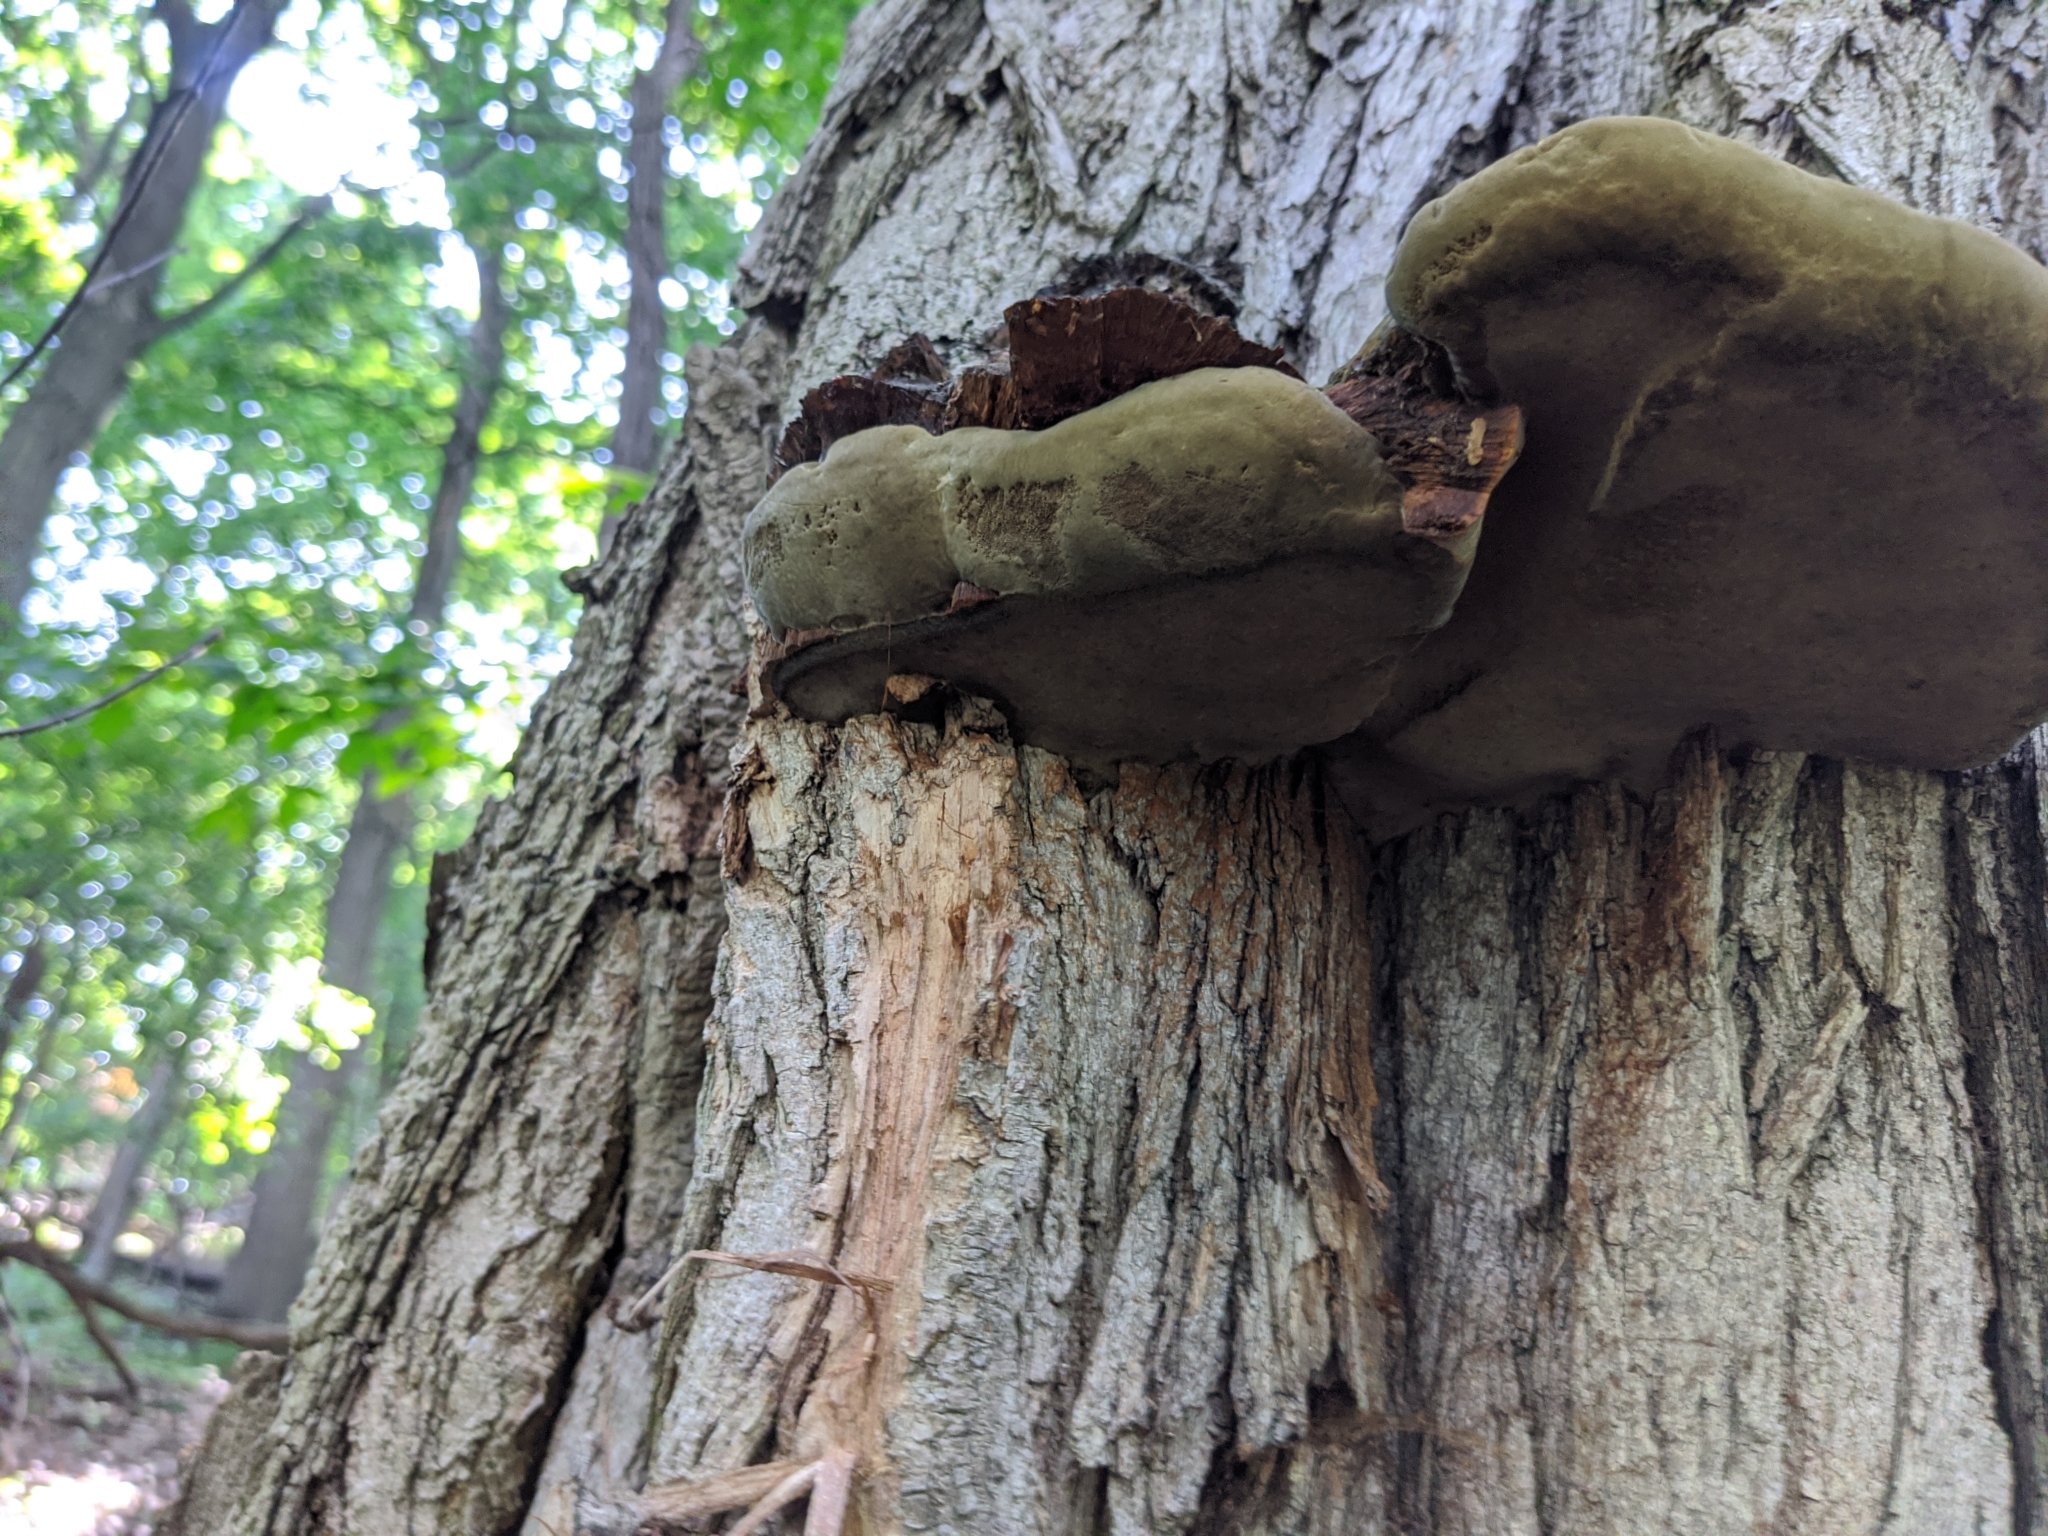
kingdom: Fungi
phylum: Basidiomycota
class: Agaricomycetes
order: Hymenochaetales
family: Hymenochaetaceae
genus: Phellinus
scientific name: Phellinus robiniae
